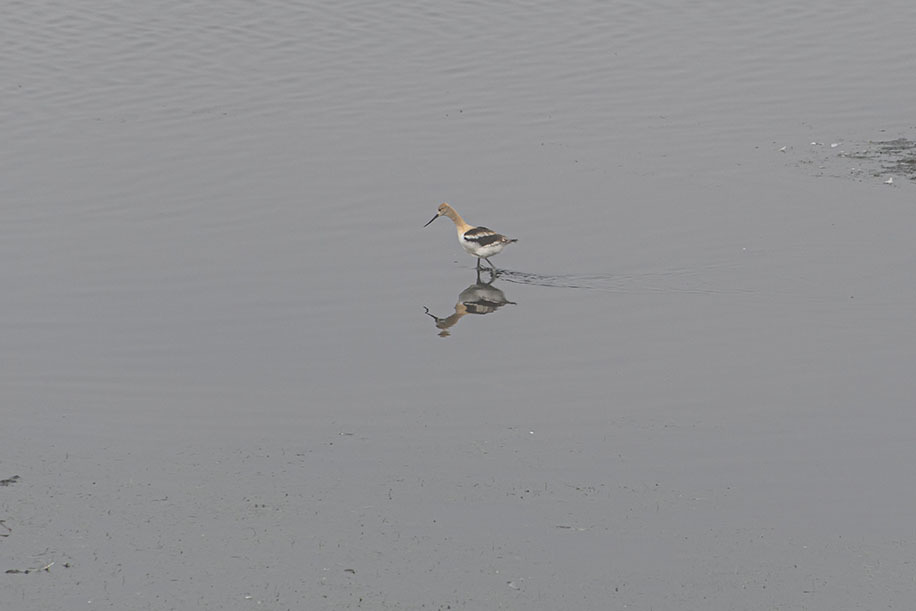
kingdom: Animalia
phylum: Chordata
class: Aves
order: Charadriiformes
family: Recurvirostridae
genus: Recurvirostra
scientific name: Recurvirostra americana
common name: American avocet
